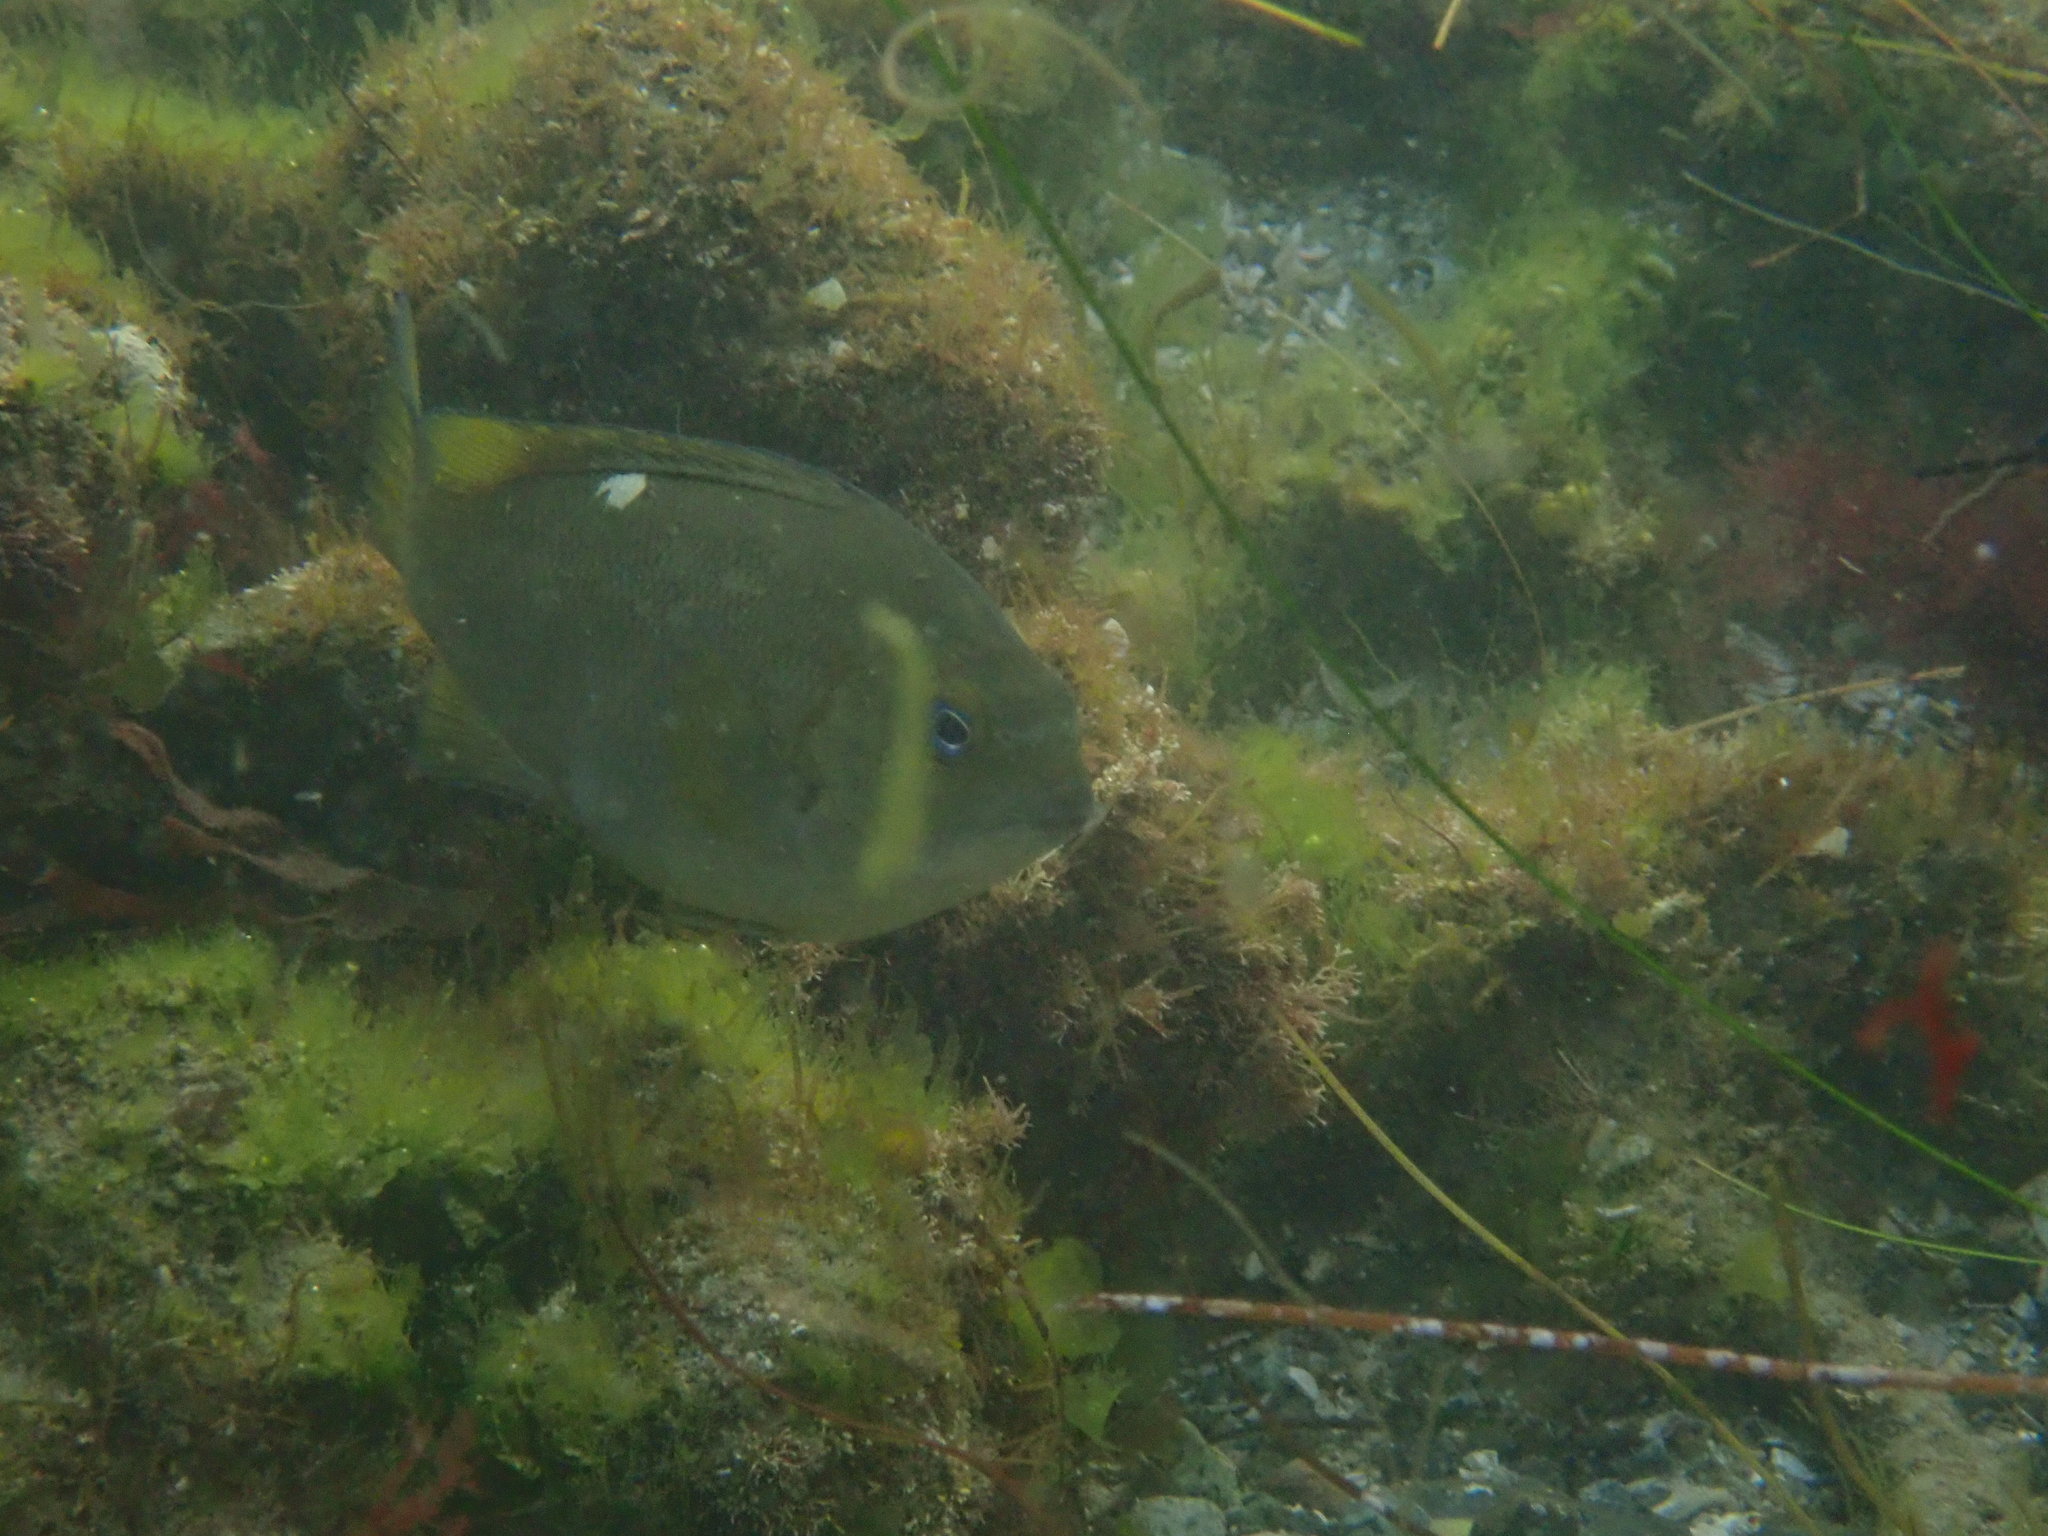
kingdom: Animalia
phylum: Chordata
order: Perciformes
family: Kyphosidae
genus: Girella
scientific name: Girella nigricans
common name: Opaleye
